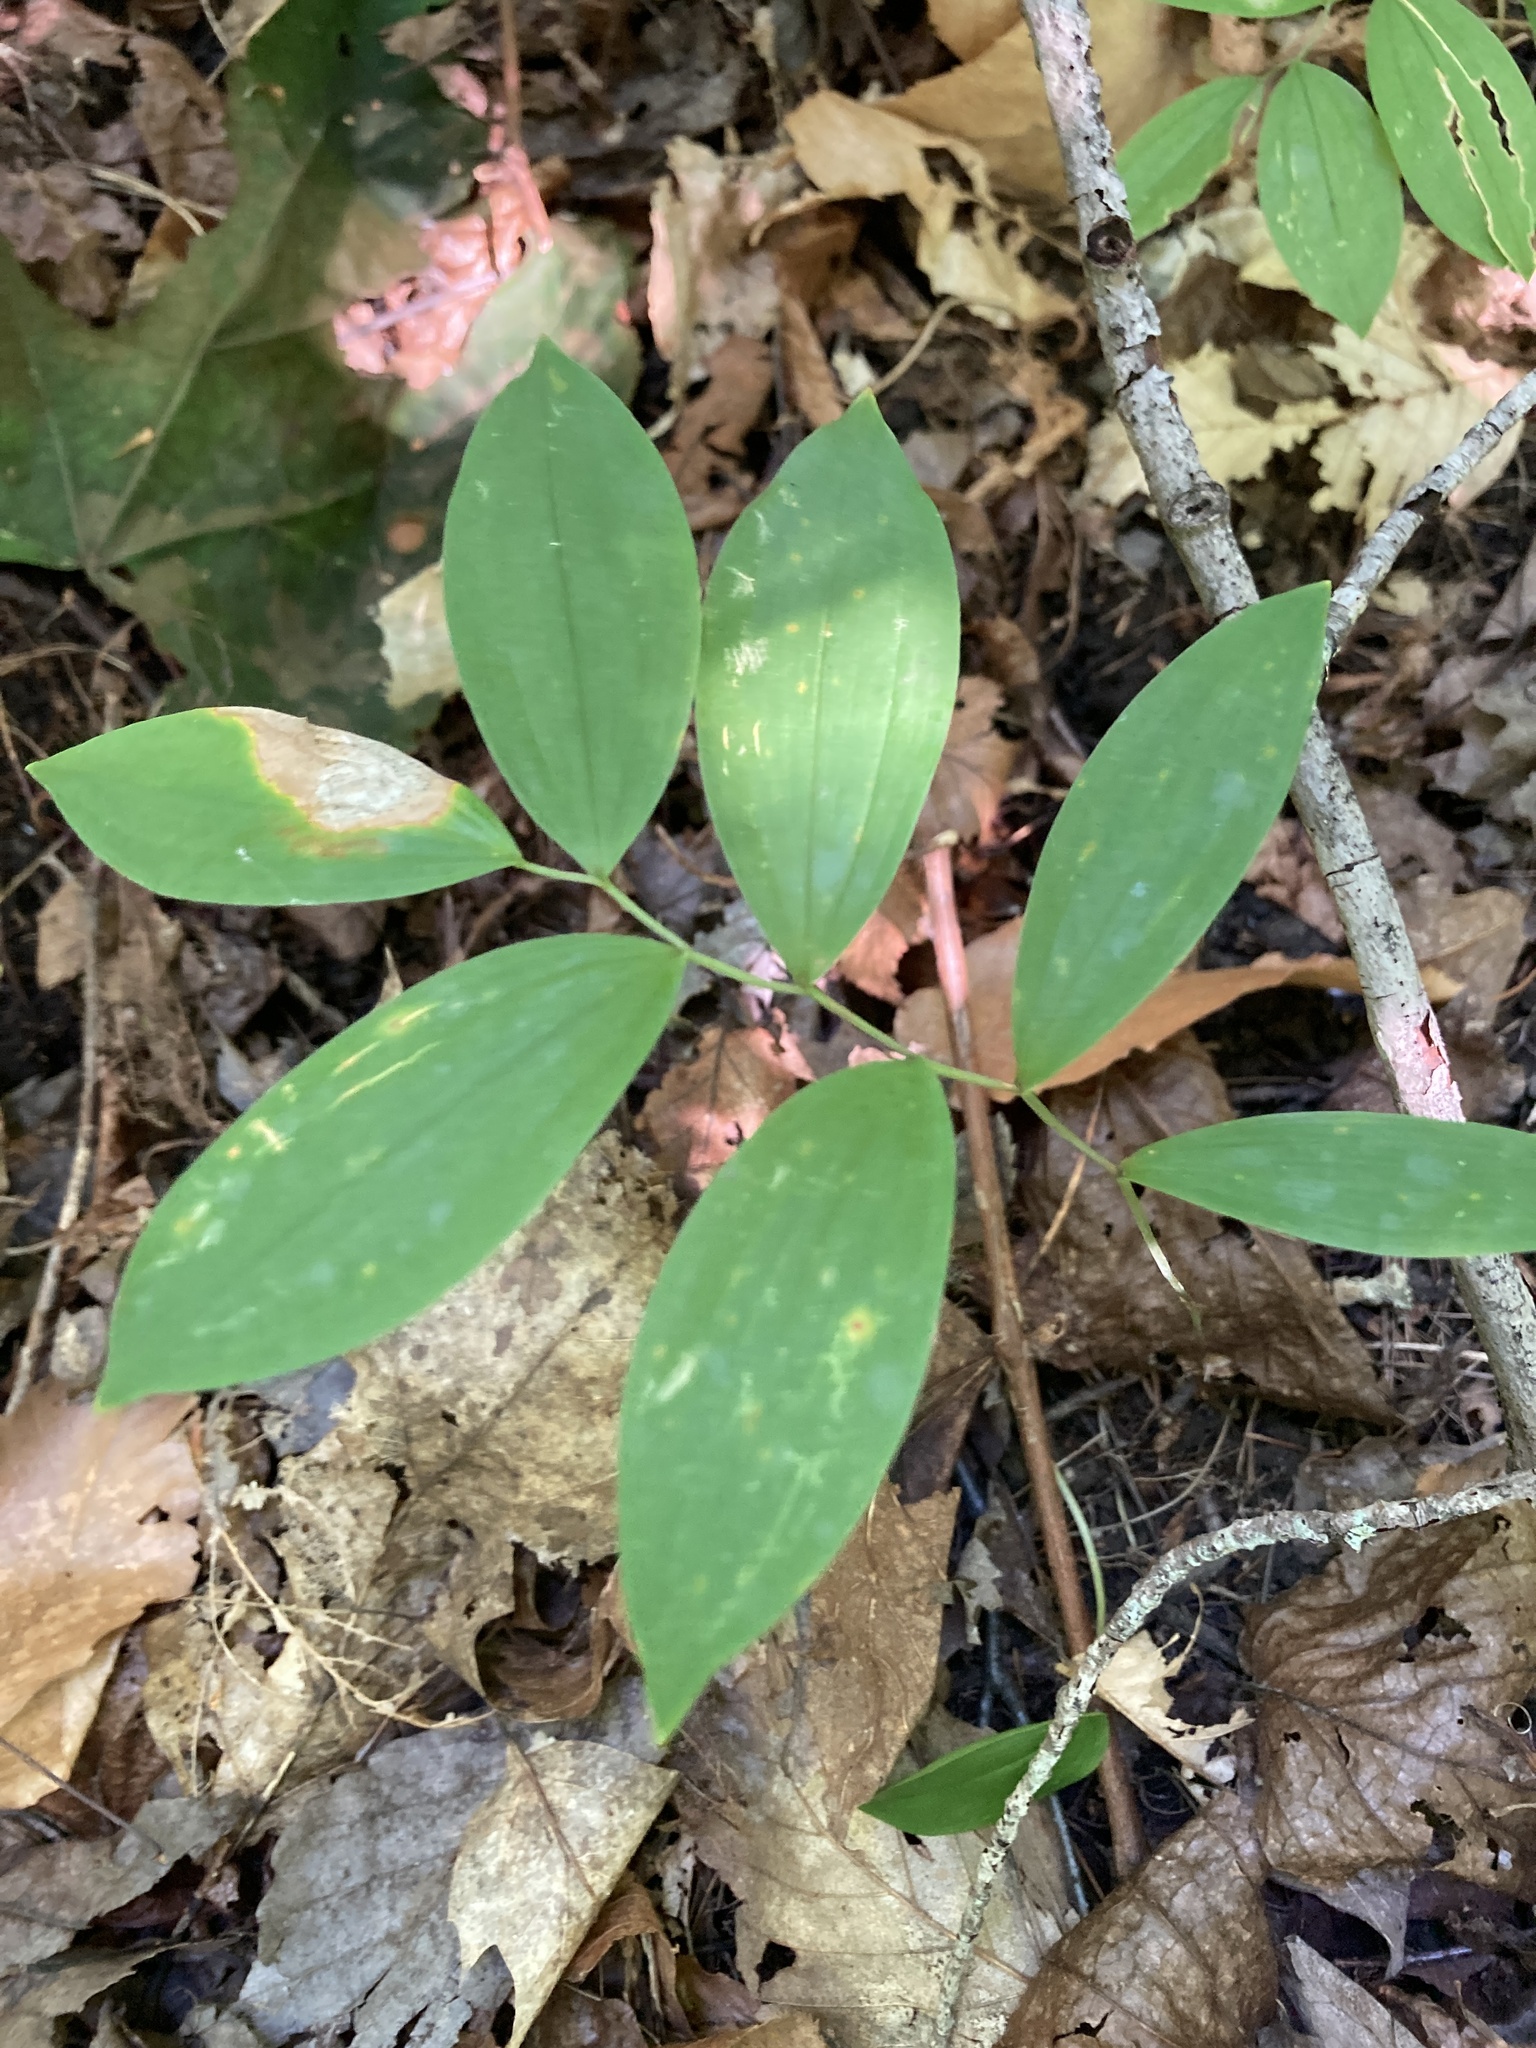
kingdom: Plantae
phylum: Tracheophyta
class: Liliopsida
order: Liliales
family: Colchicaceae
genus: Uvularia
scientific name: Uvularia sessilifolia
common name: Straw-lily
